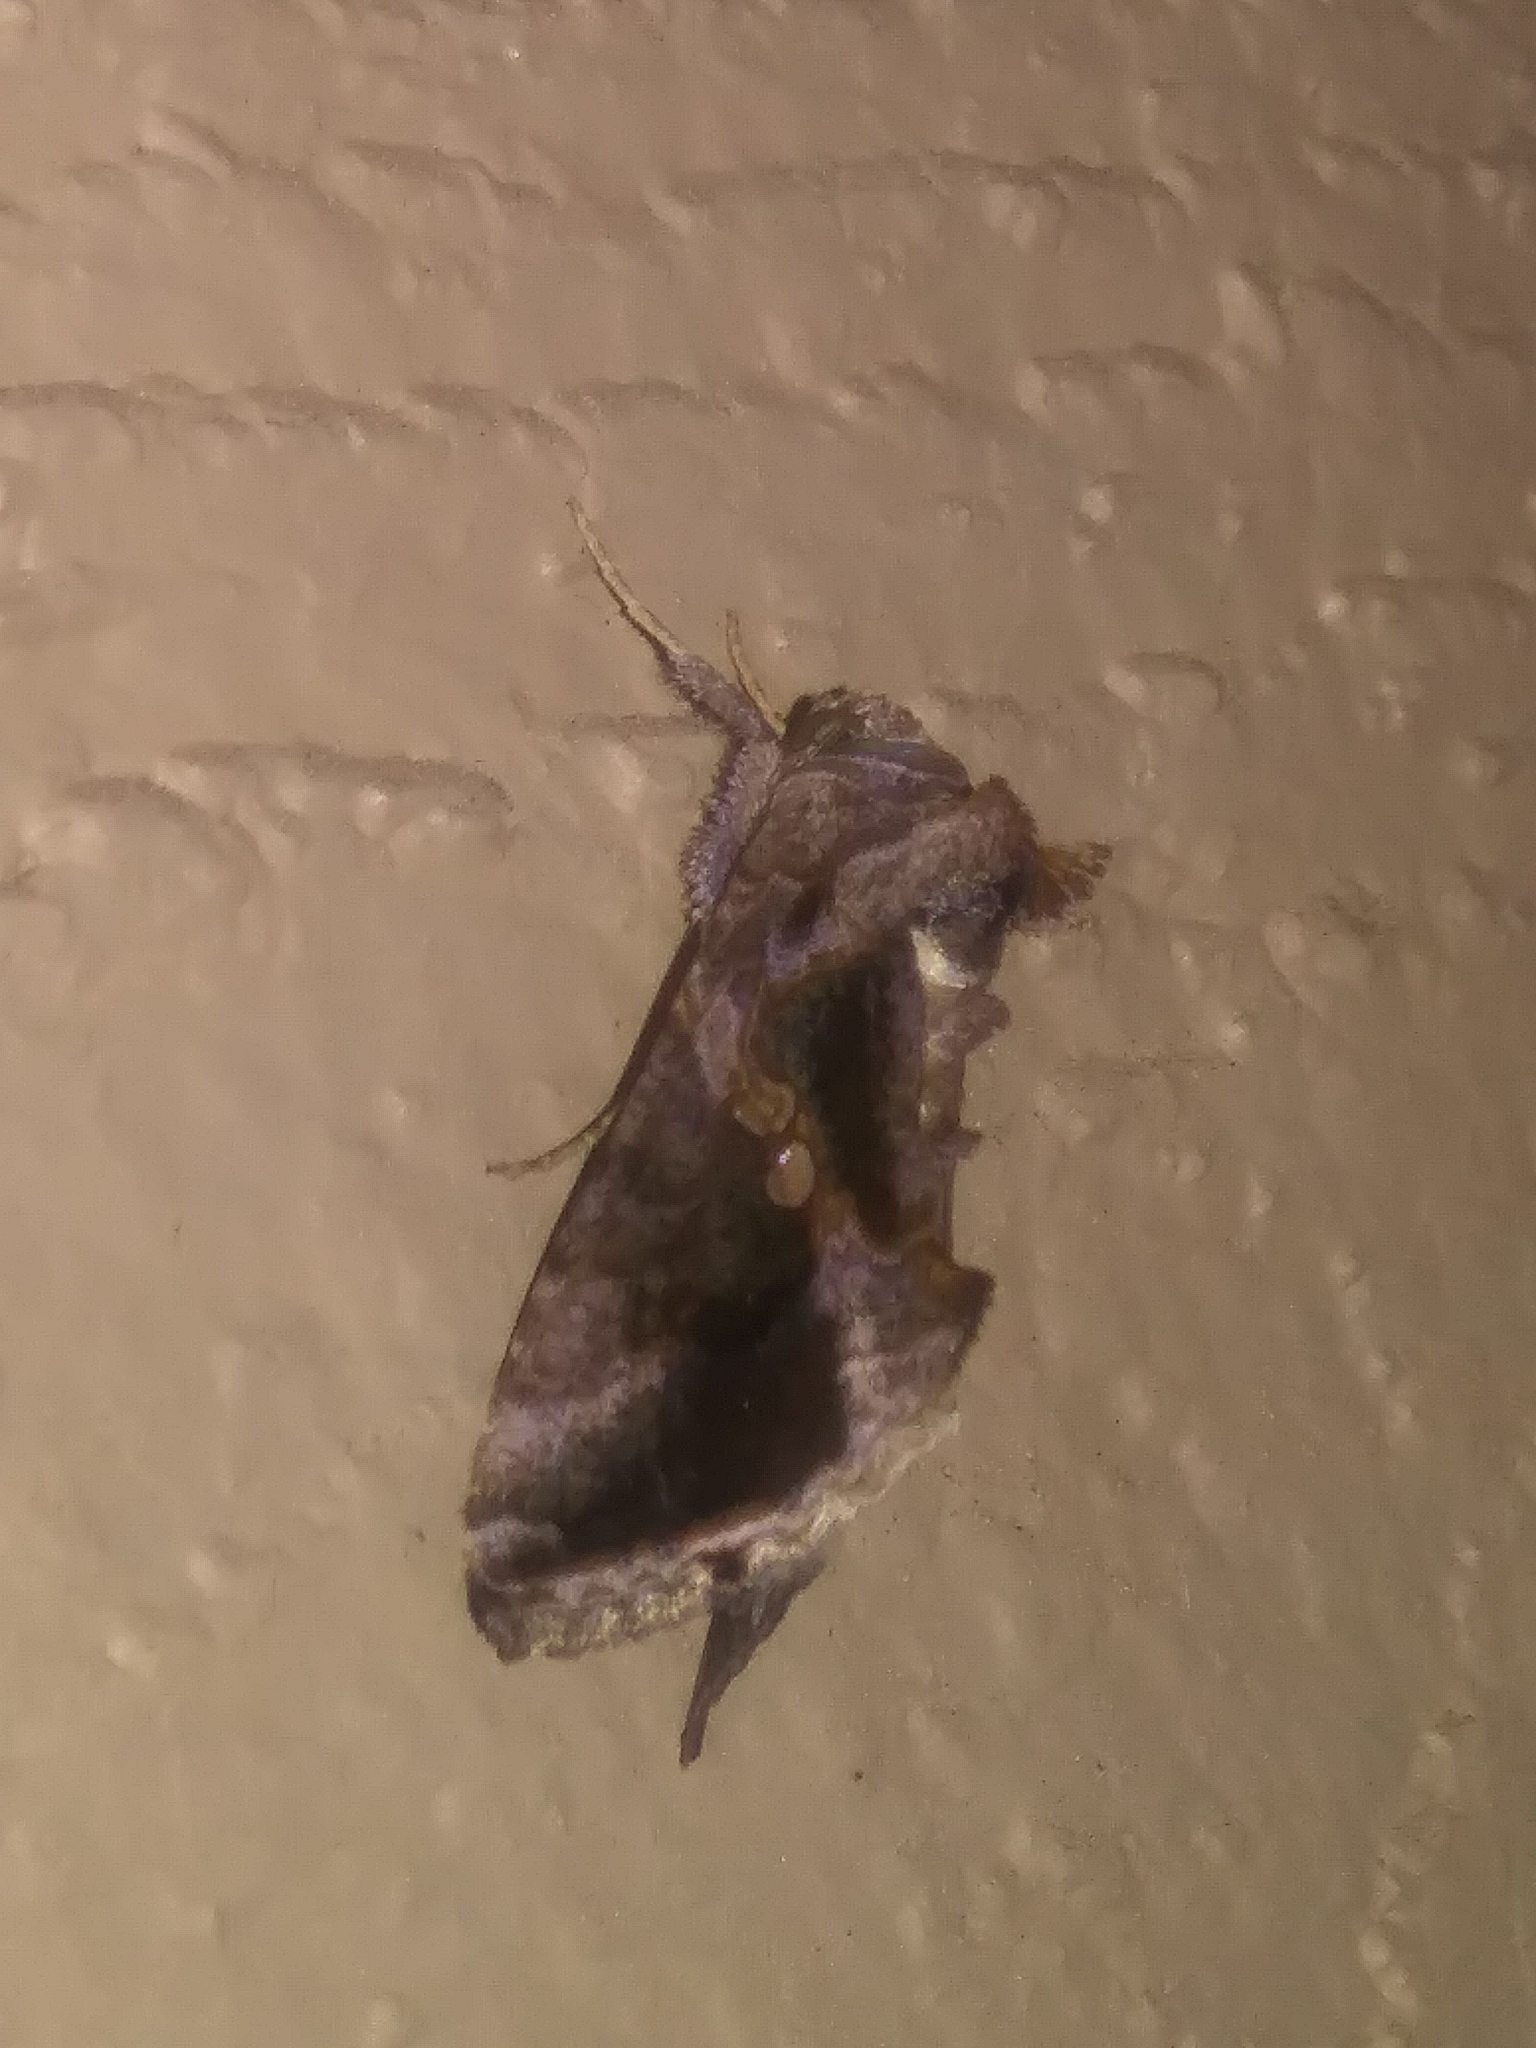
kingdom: Animalia
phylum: Arthropoda
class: Insecta
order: Lepidoptera
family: Noctuidae
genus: Chrysodeixis
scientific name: Chrysodeixis includens
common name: Cutworm moth
